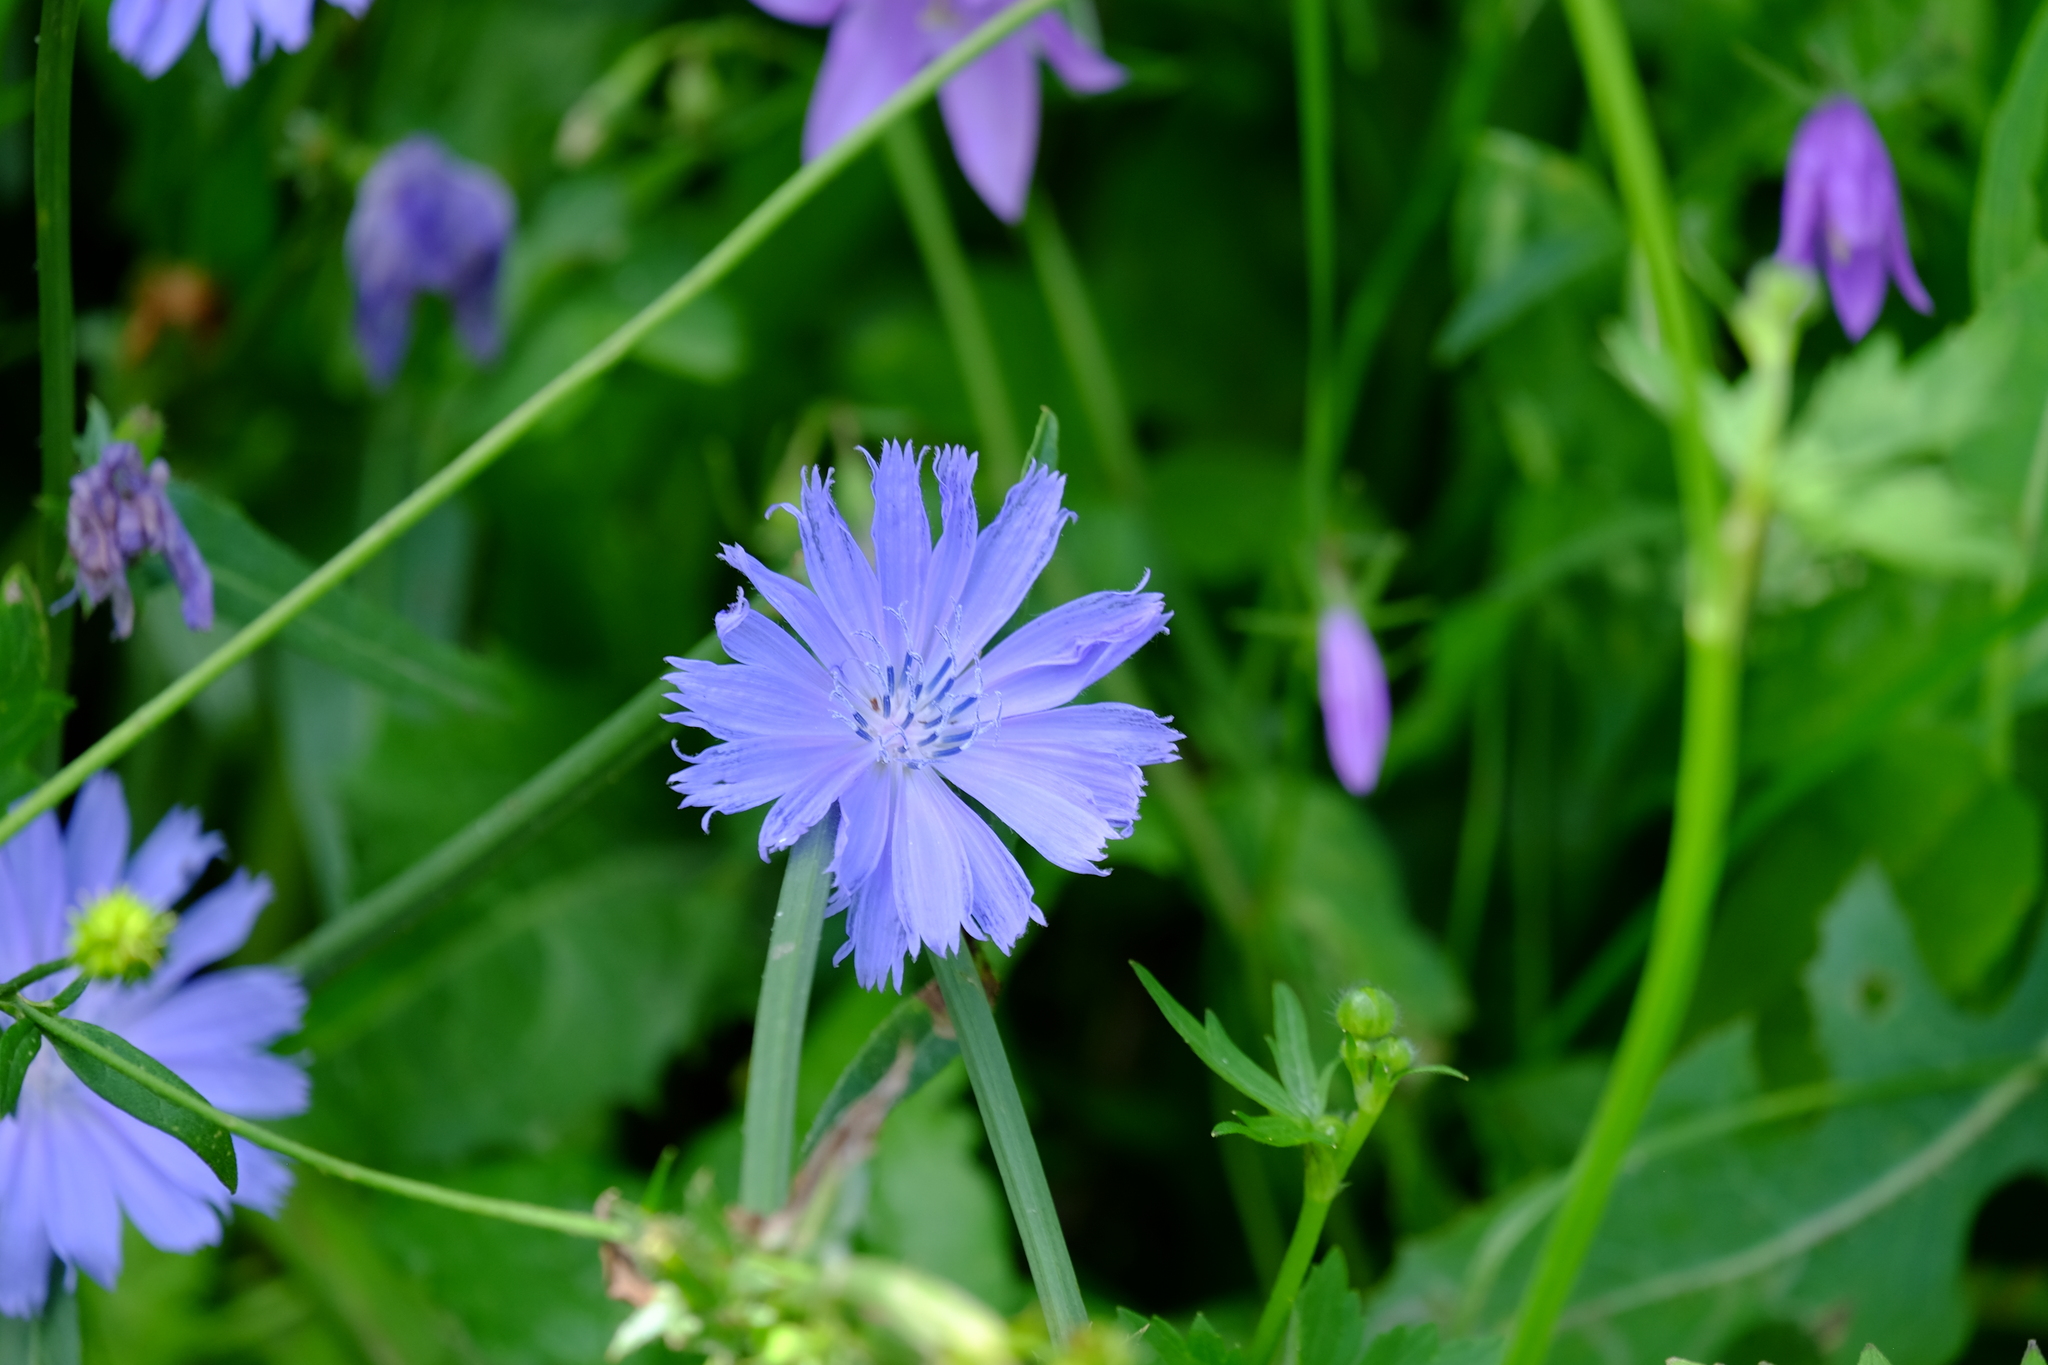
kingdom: Plantae
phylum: Tracheophyta
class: Magnoliopsida
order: Asterales
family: Asteraceae
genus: Cichorium
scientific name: Cichorium intybus
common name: Chicory
